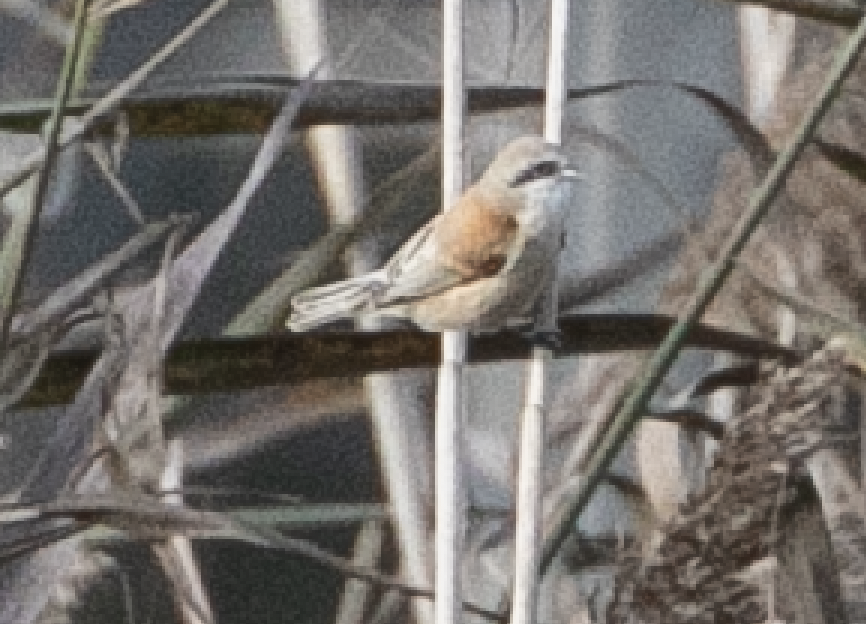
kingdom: Animalia
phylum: Chordata
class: Aves
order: Passeriformes
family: Remizidae
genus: Remiz
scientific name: Remiz pendulinus
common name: Eurasian penduline tit
